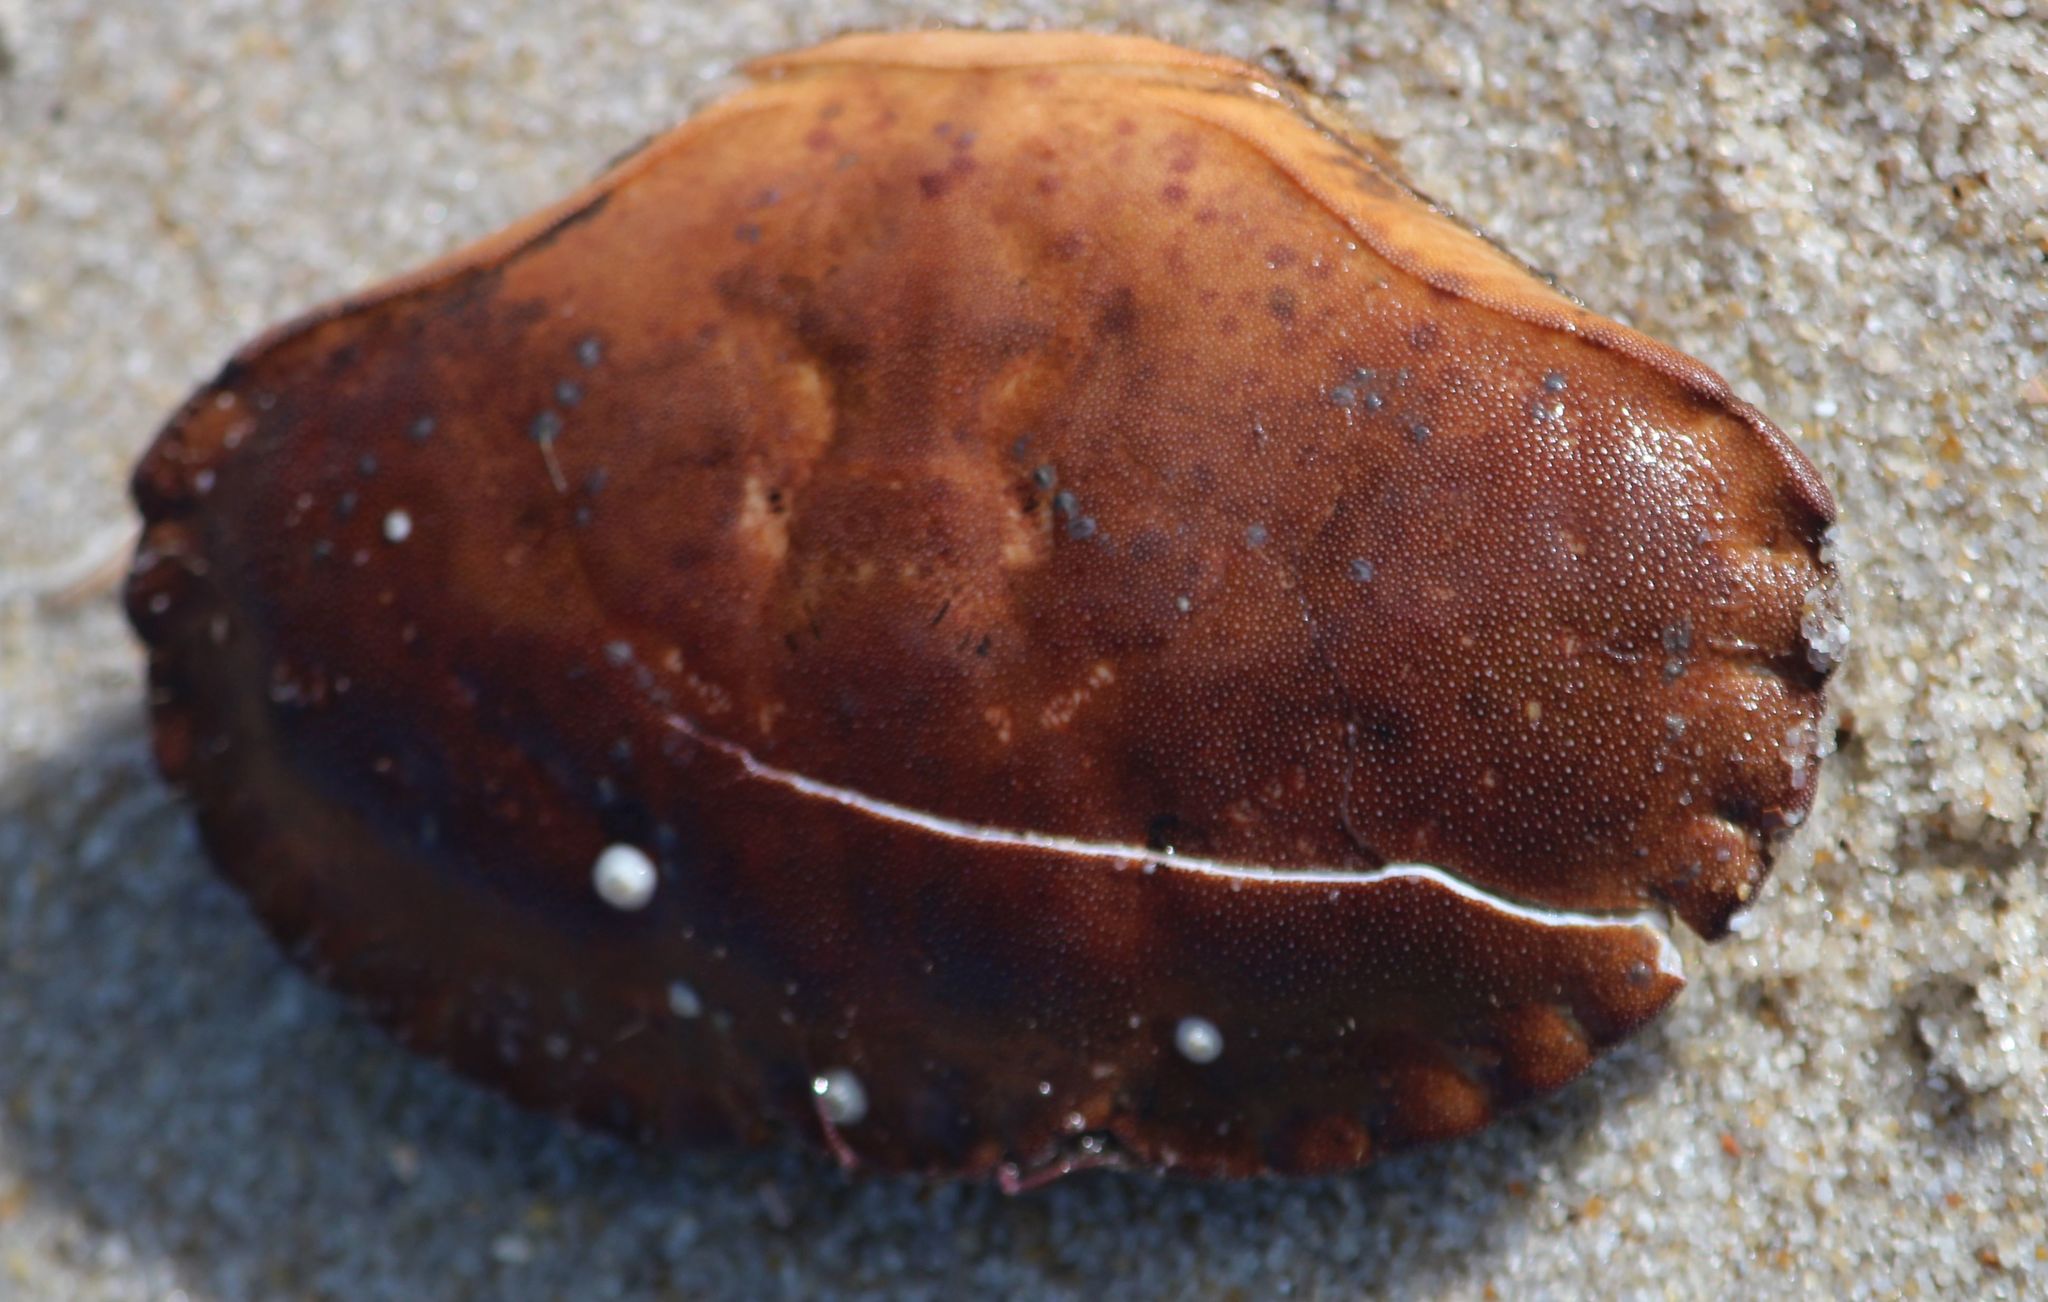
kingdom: Animalia
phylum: Arthropoda
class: Malacostraca
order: Decapoda
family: Cancridae
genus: Cancer
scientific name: Cancer pagurus
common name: Edible crab
